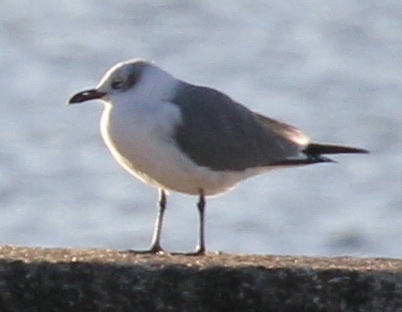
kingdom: Animalia
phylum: Chordata
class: Aves
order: Charadriiformes
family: Laridae
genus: Leucophaeus
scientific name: Leucophaeus atricilla
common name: Laughing gull
